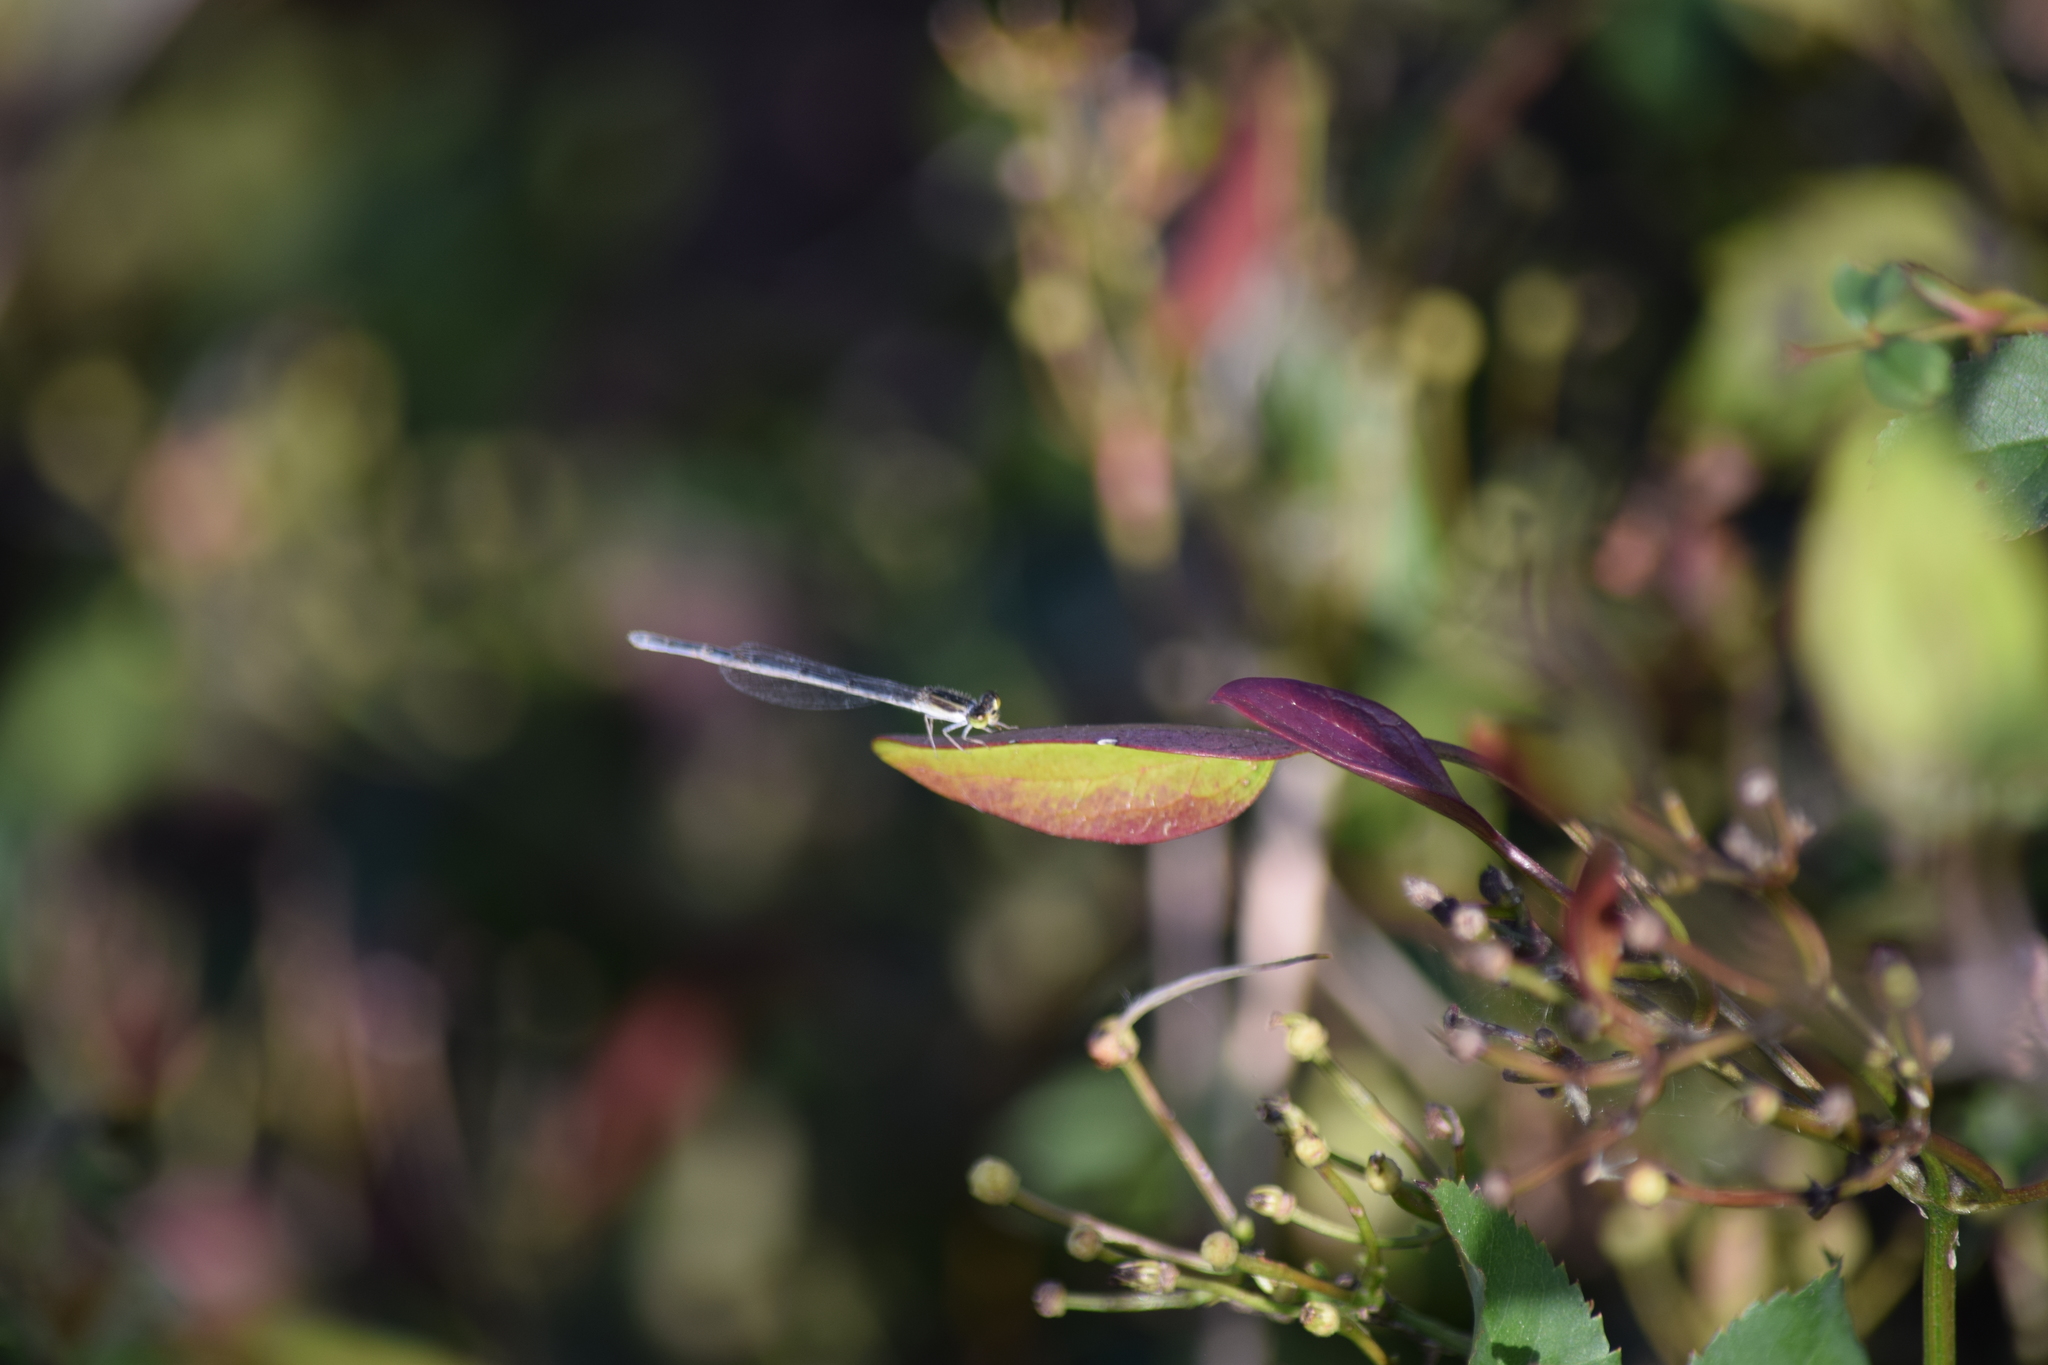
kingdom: Animalia
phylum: Arthropoda
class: Insecta
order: Odonata
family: Coenagrionidae
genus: Ischnura
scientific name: Ischnura hastata
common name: Citrine forktail
